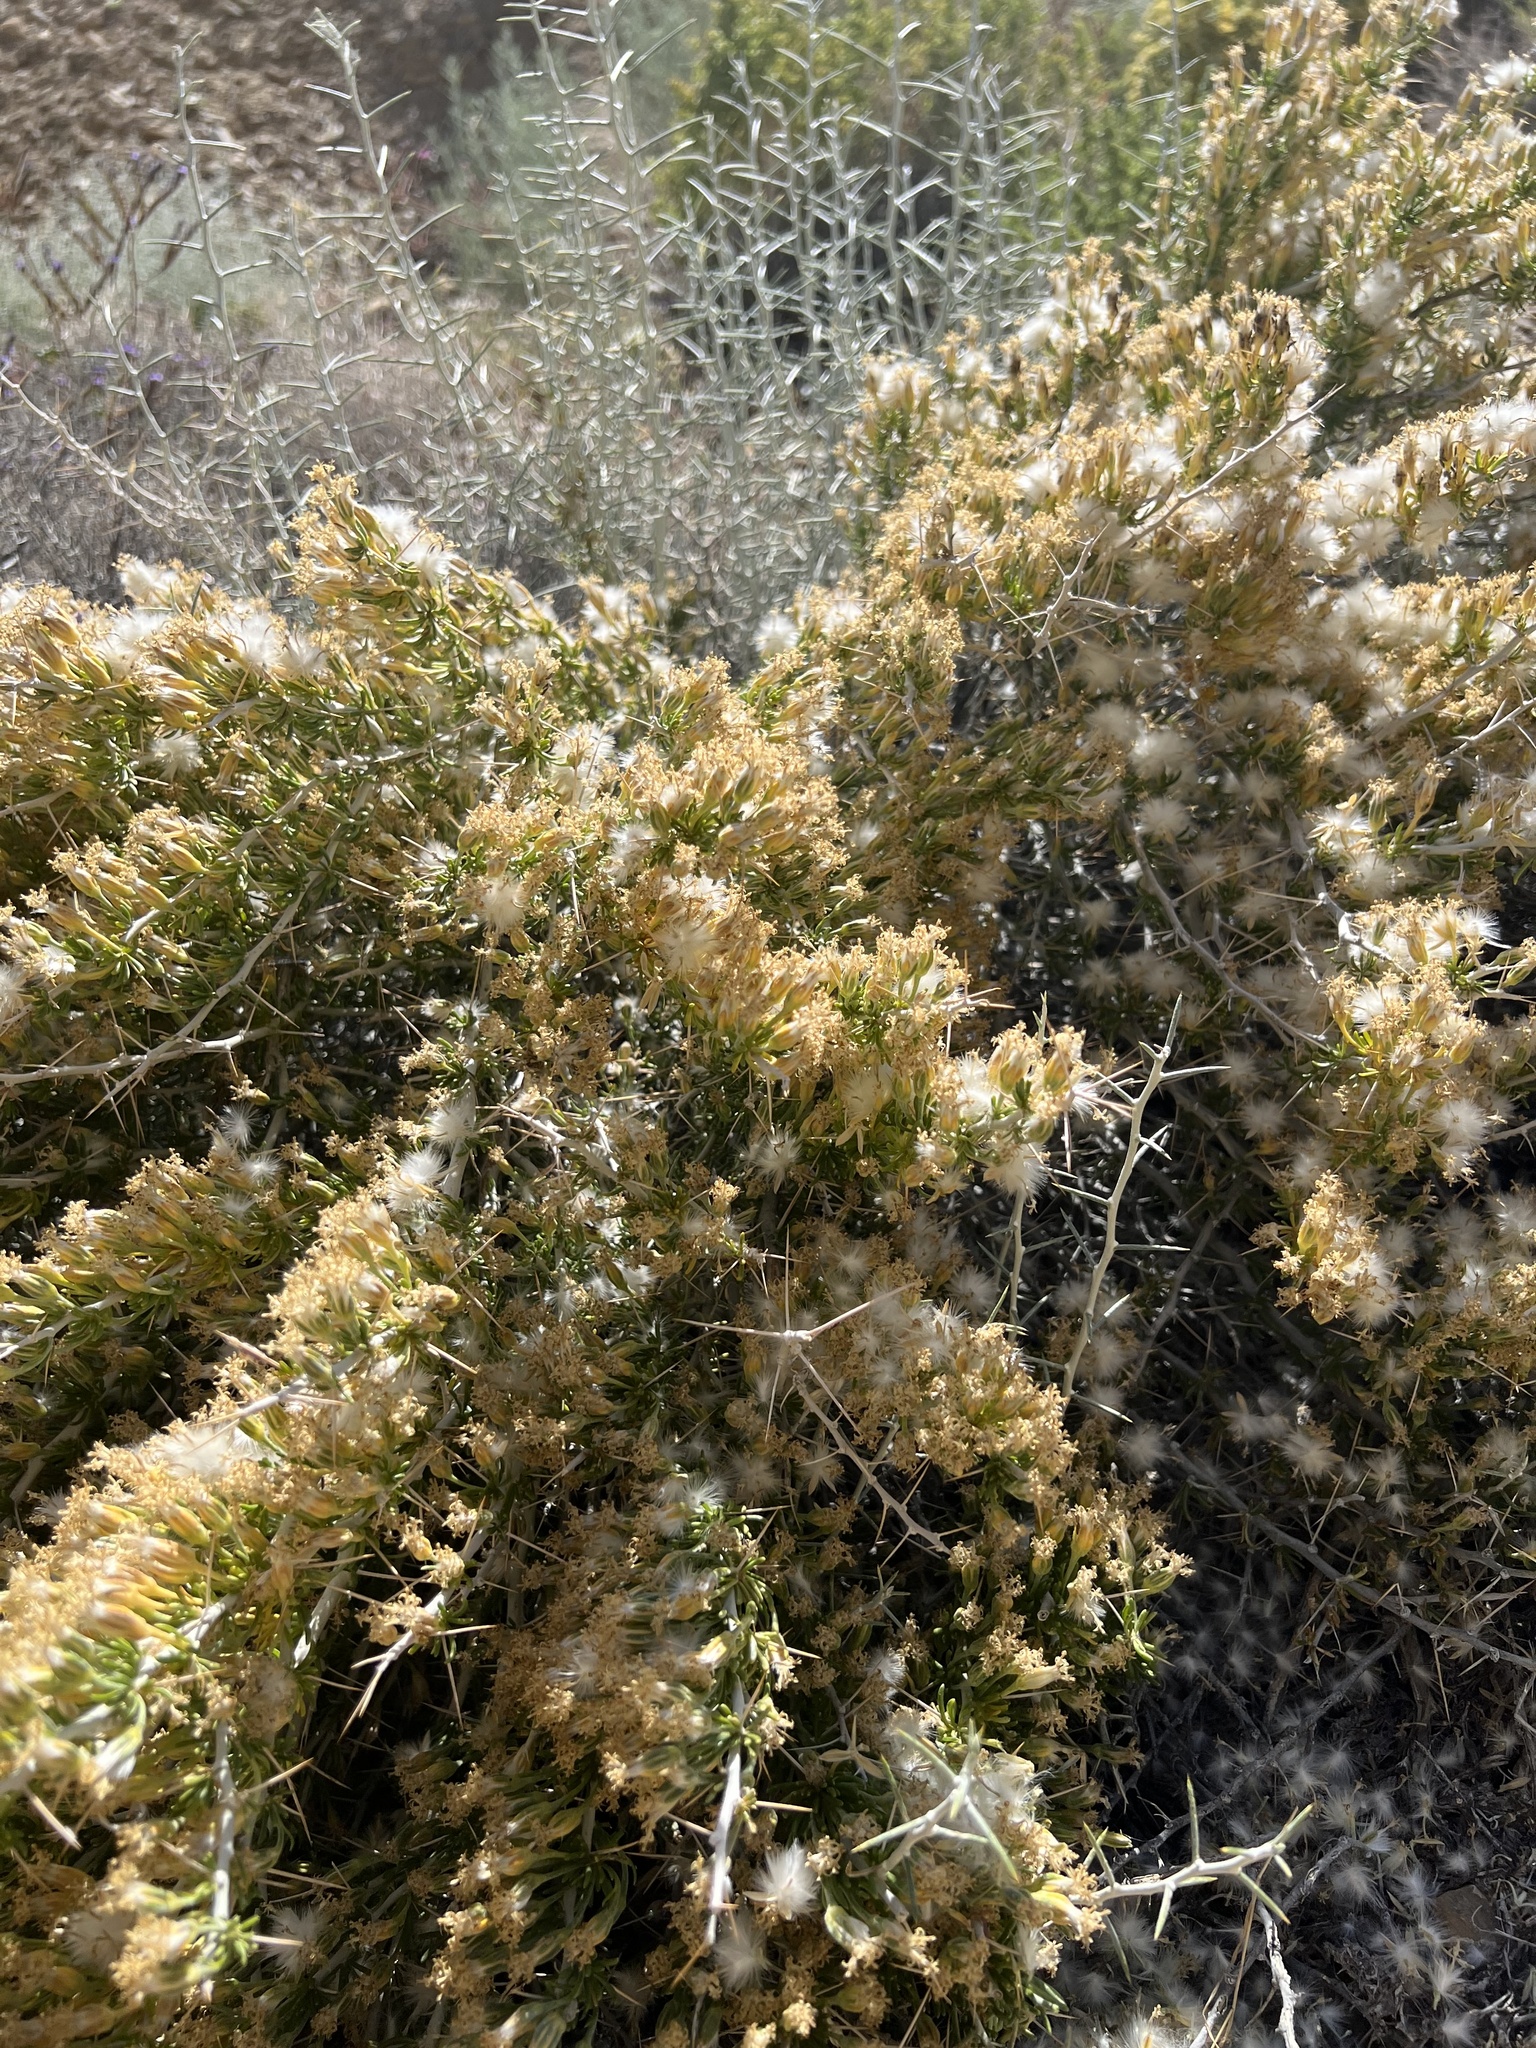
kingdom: Plantae
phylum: Tracheophyta
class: Magnoliopsida
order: Asterales
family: Asteraceae
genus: Tetradymia
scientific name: Tetradymia axillaris
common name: Long-spine horsebrush
